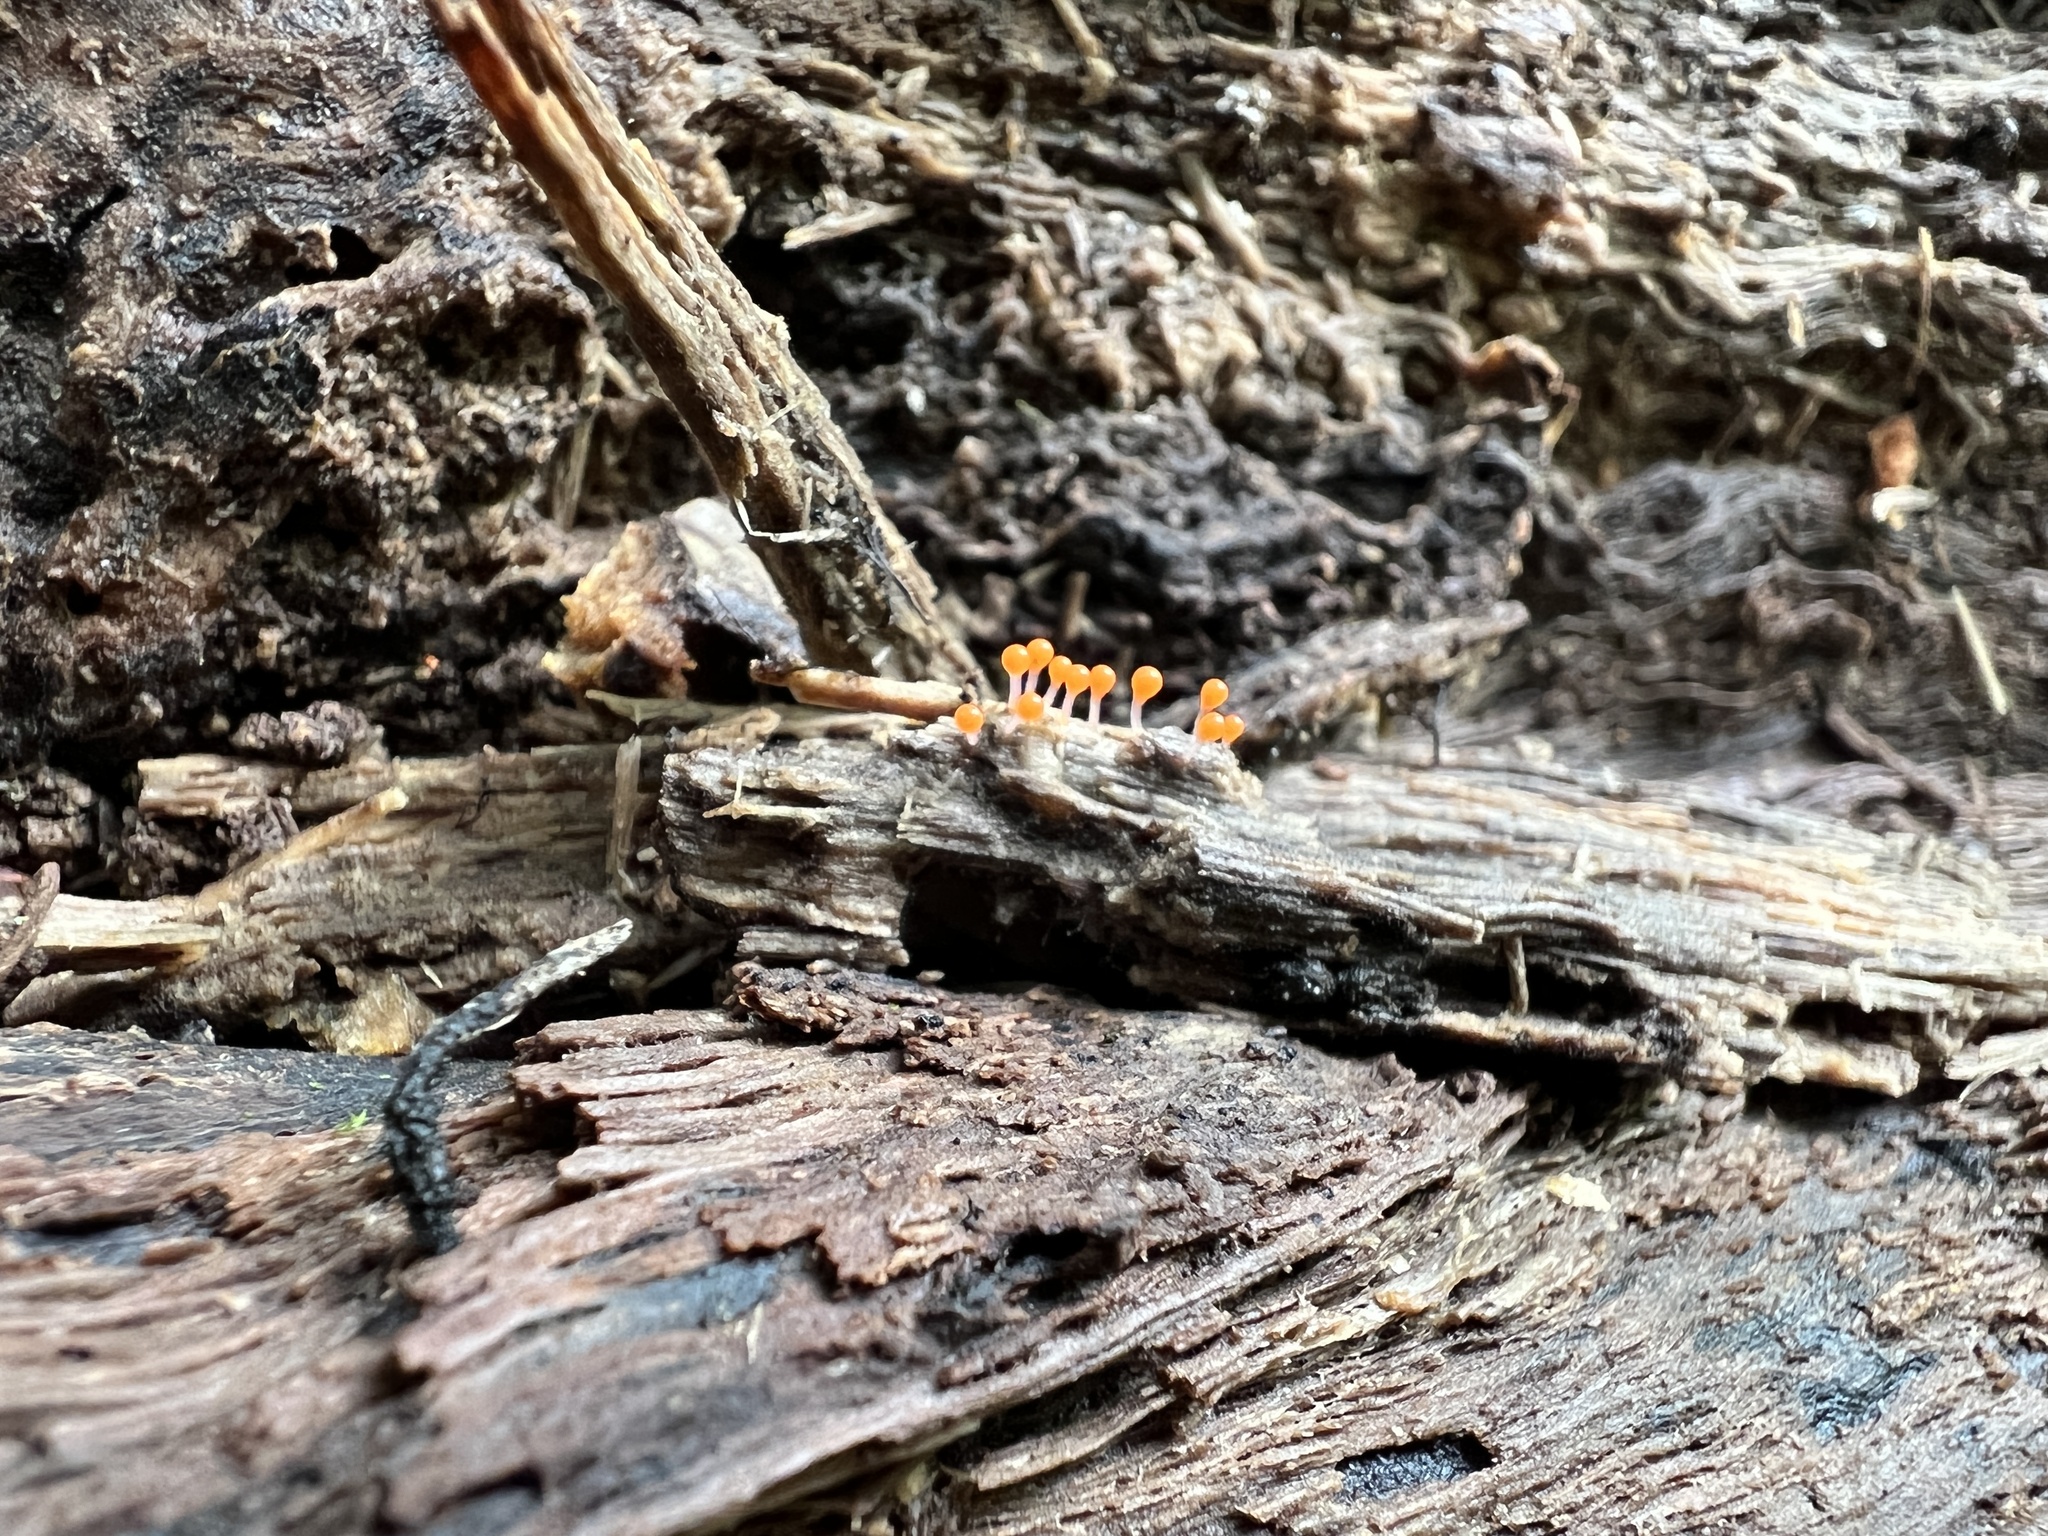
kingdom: Protozoa
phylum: Mycetozoa
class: Myxomycetes
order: Trichiales
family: Arcyriaceae
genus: Hemitrichia
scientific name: Hemitrichia calyculata
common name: Push pin slime mold
